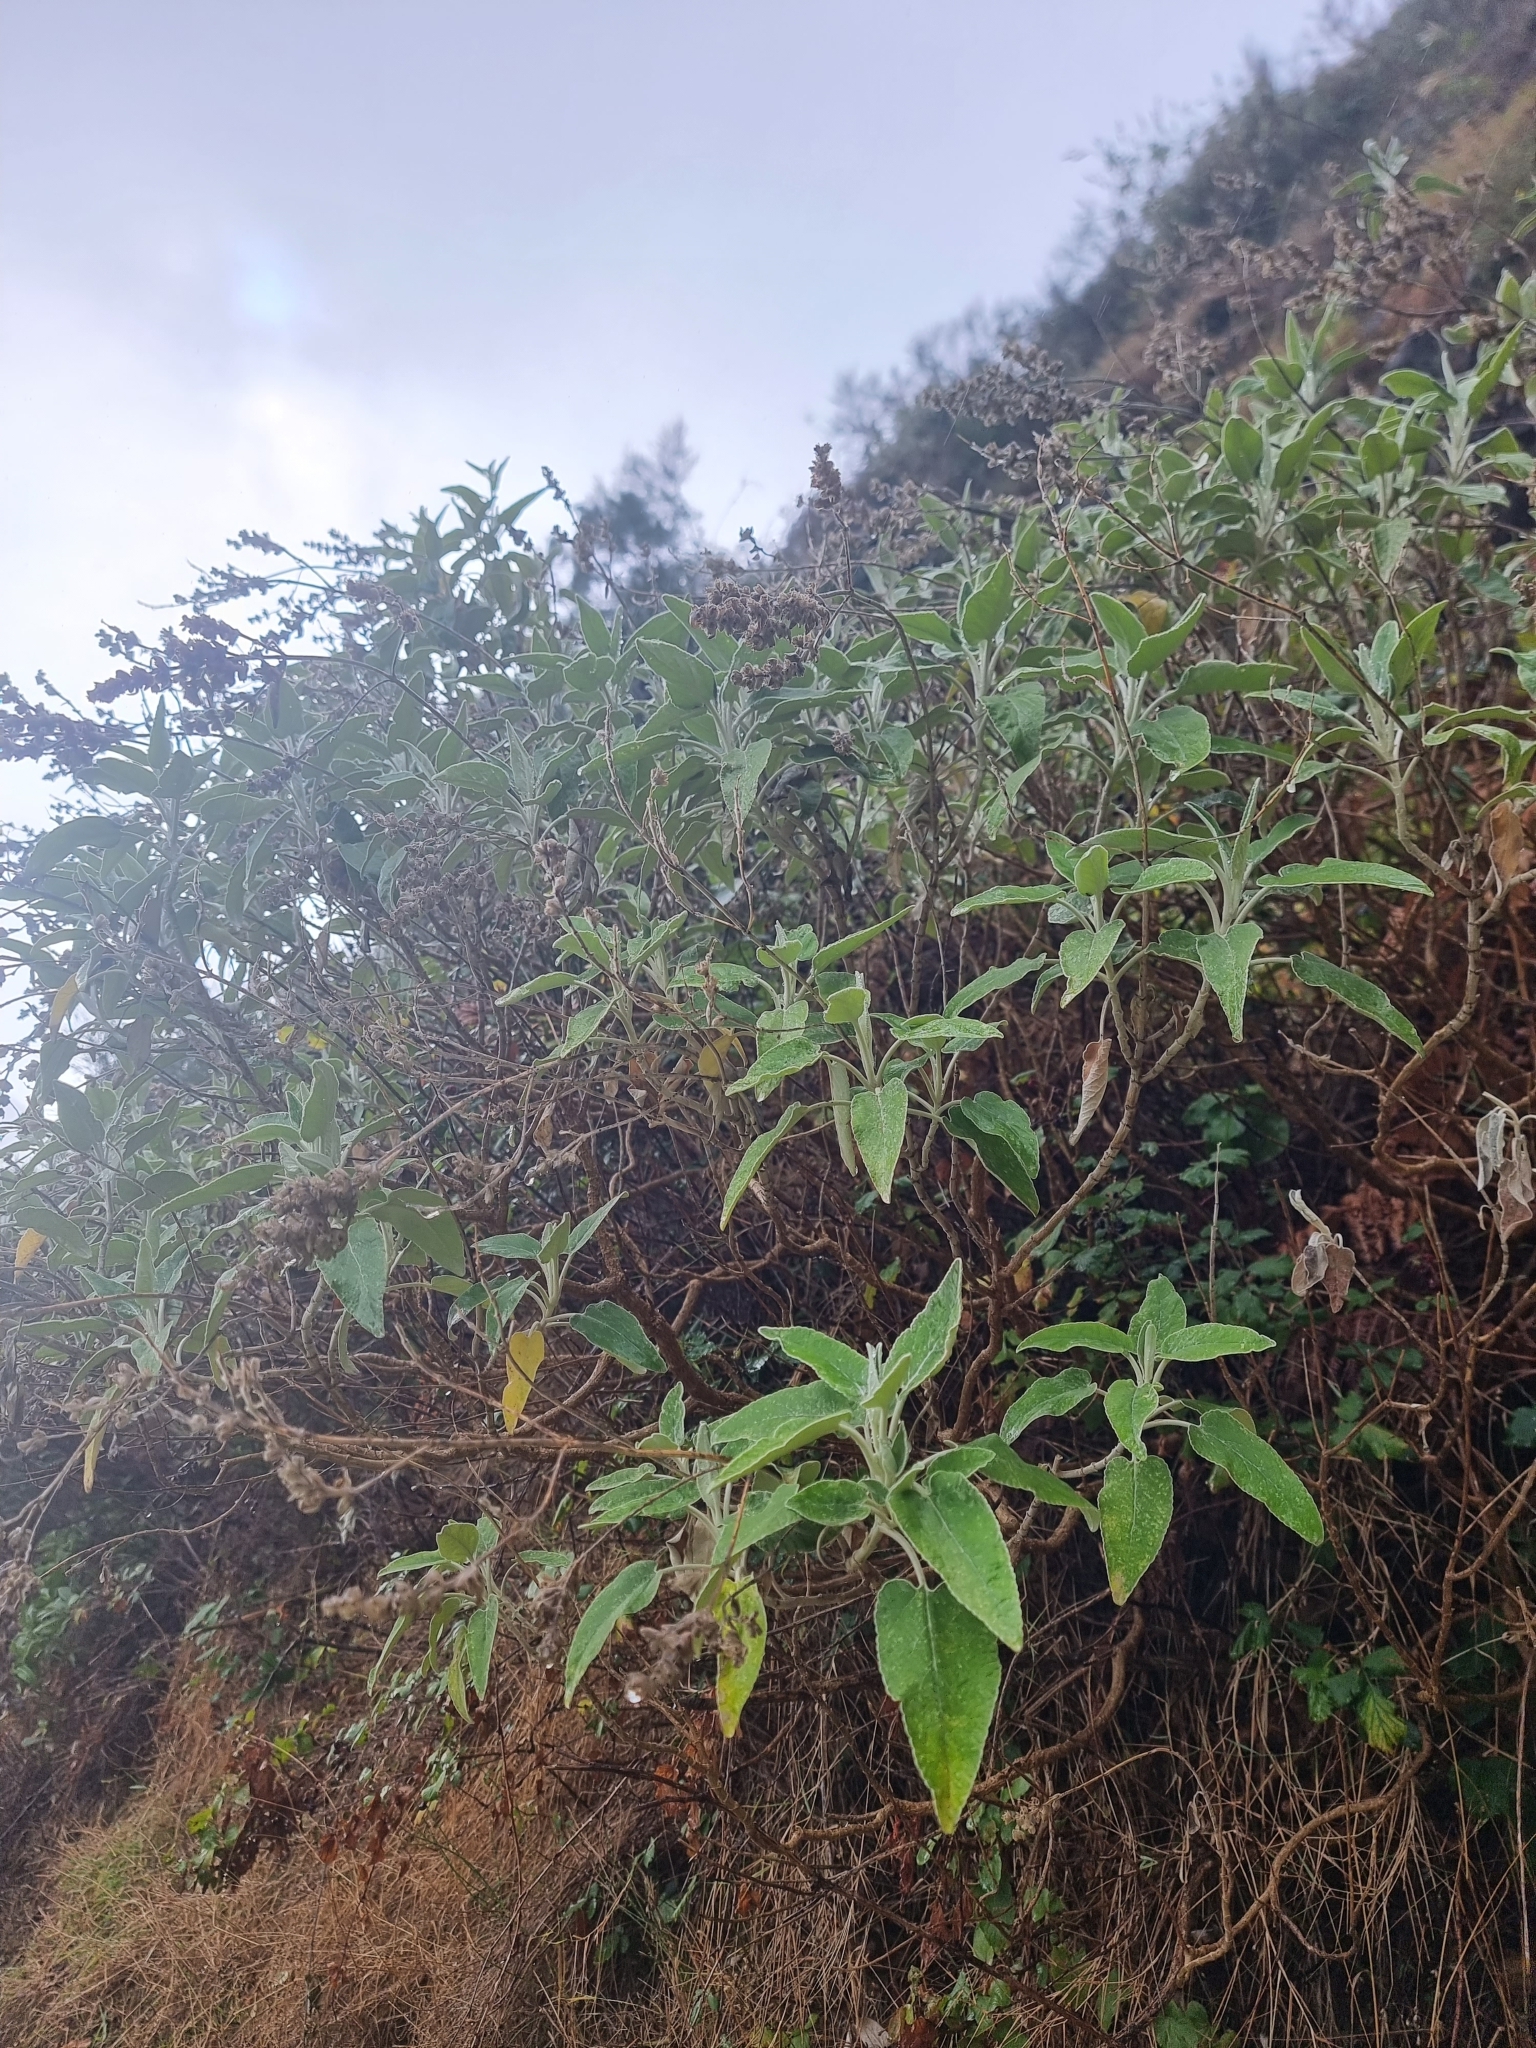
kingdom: Plantae
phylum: Tracheophyta
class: Magnoliopsida
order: Lamiales
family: Lamiaceae
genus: Sideritis
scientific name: Sideritis candicans
